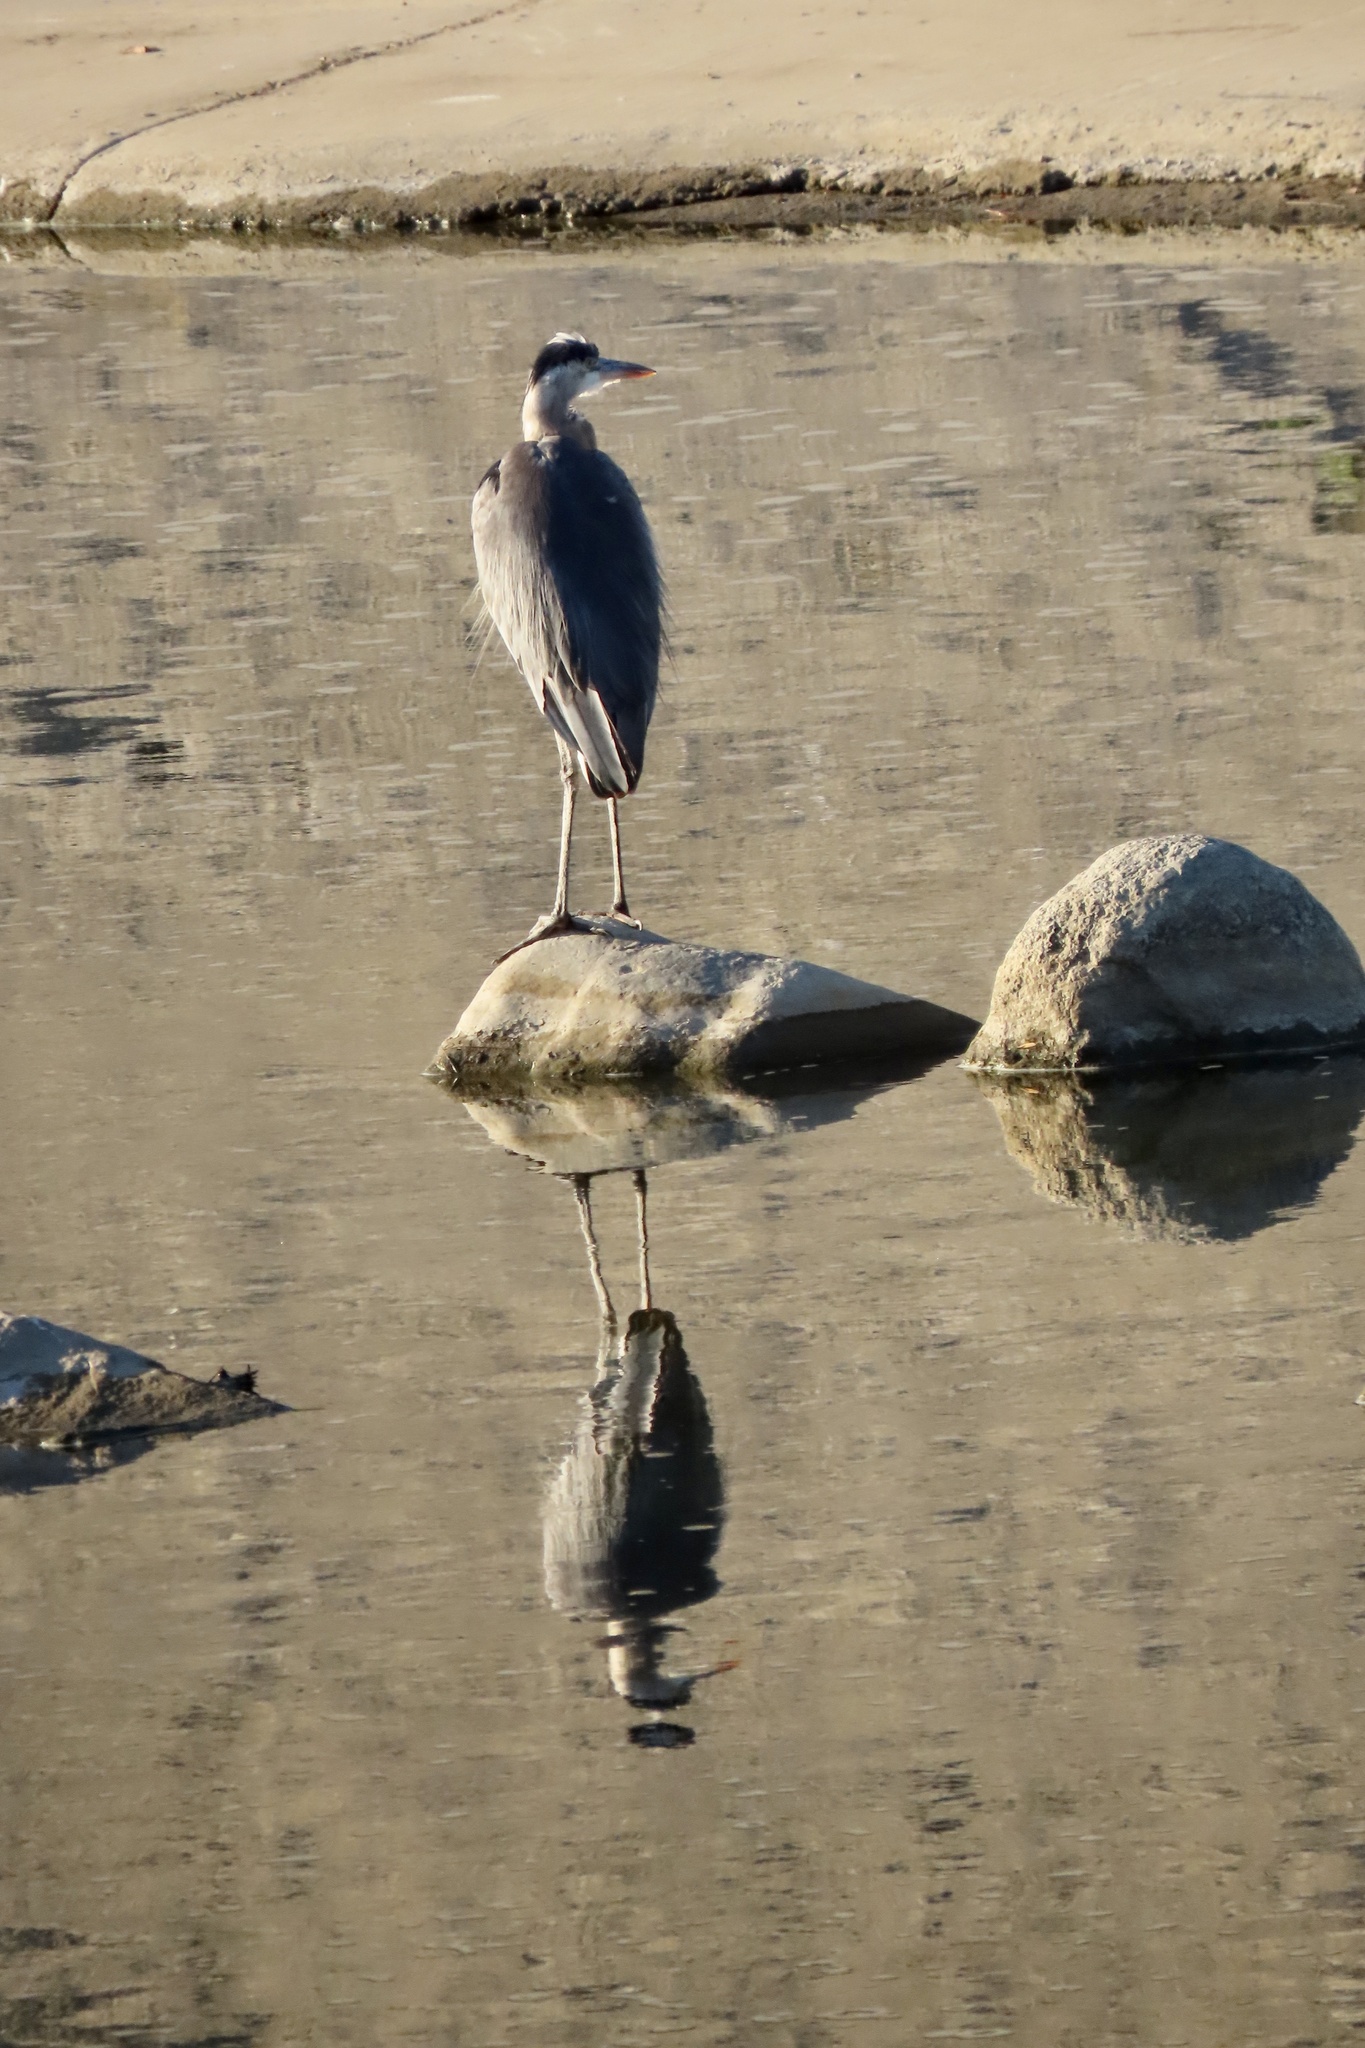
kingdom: Animalia
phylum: Chordata
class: Aves
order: Pelecaniformes
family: Ardeidae
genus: Ardea
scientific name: Ardea herodias
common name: Great blue heron
